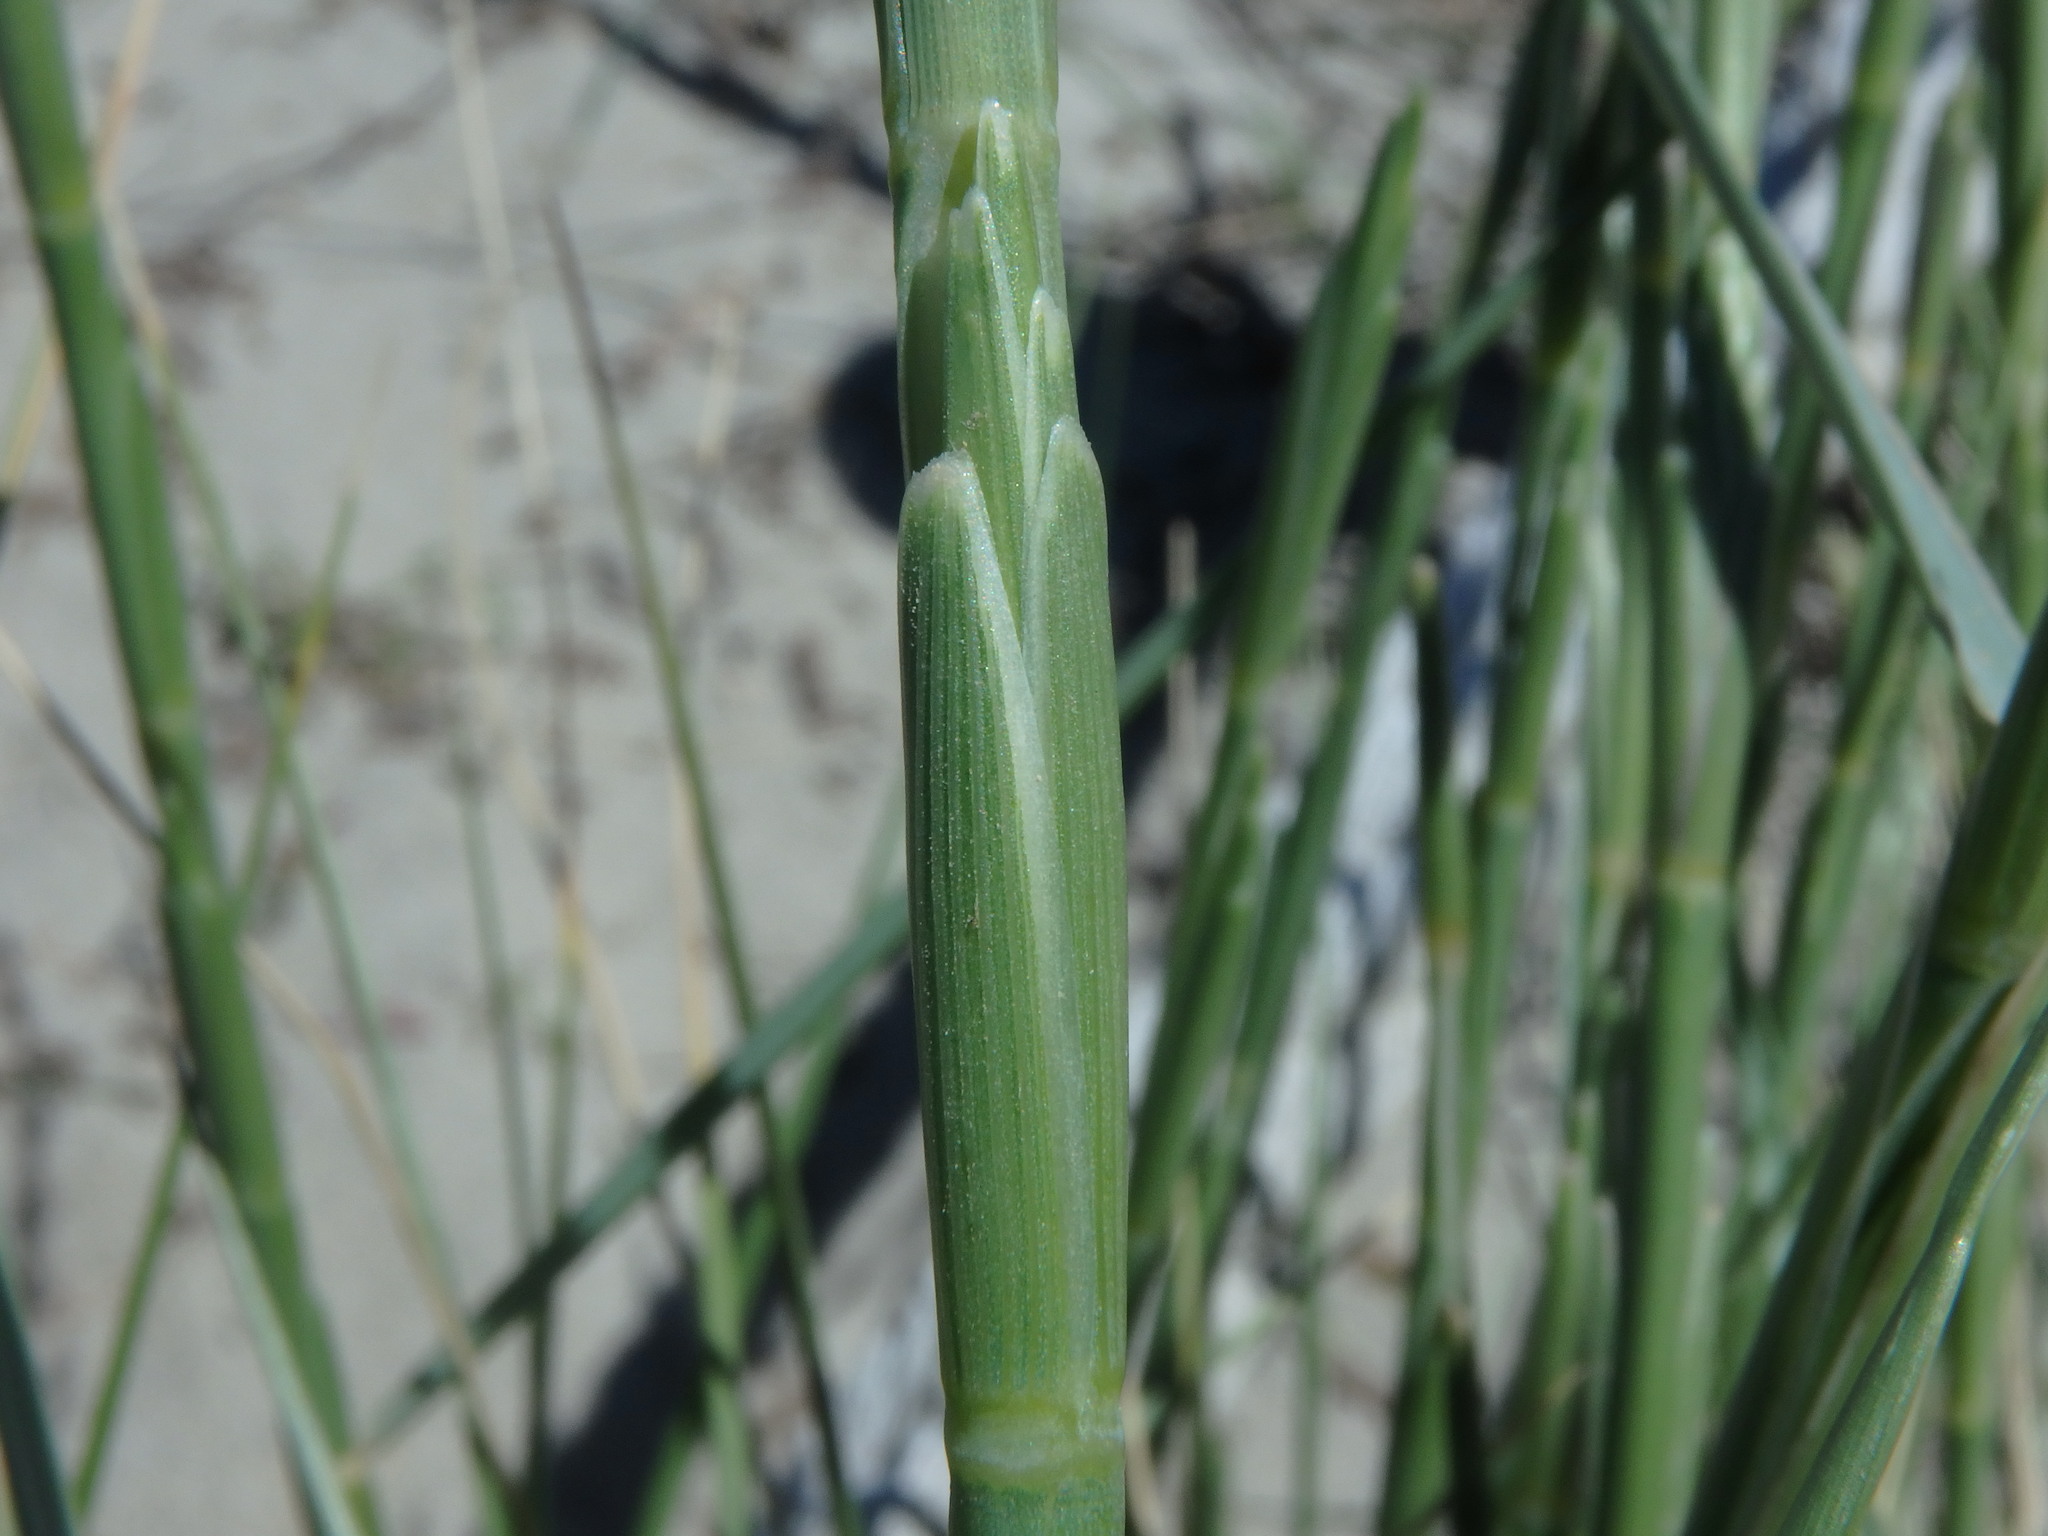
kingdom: Plantae
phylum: Tracheophyta
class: Liliopsida
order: Poales
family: Poaceae
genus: Thinopyrum
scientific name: Thinopyrum junceum
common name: Russian wheatgrass
